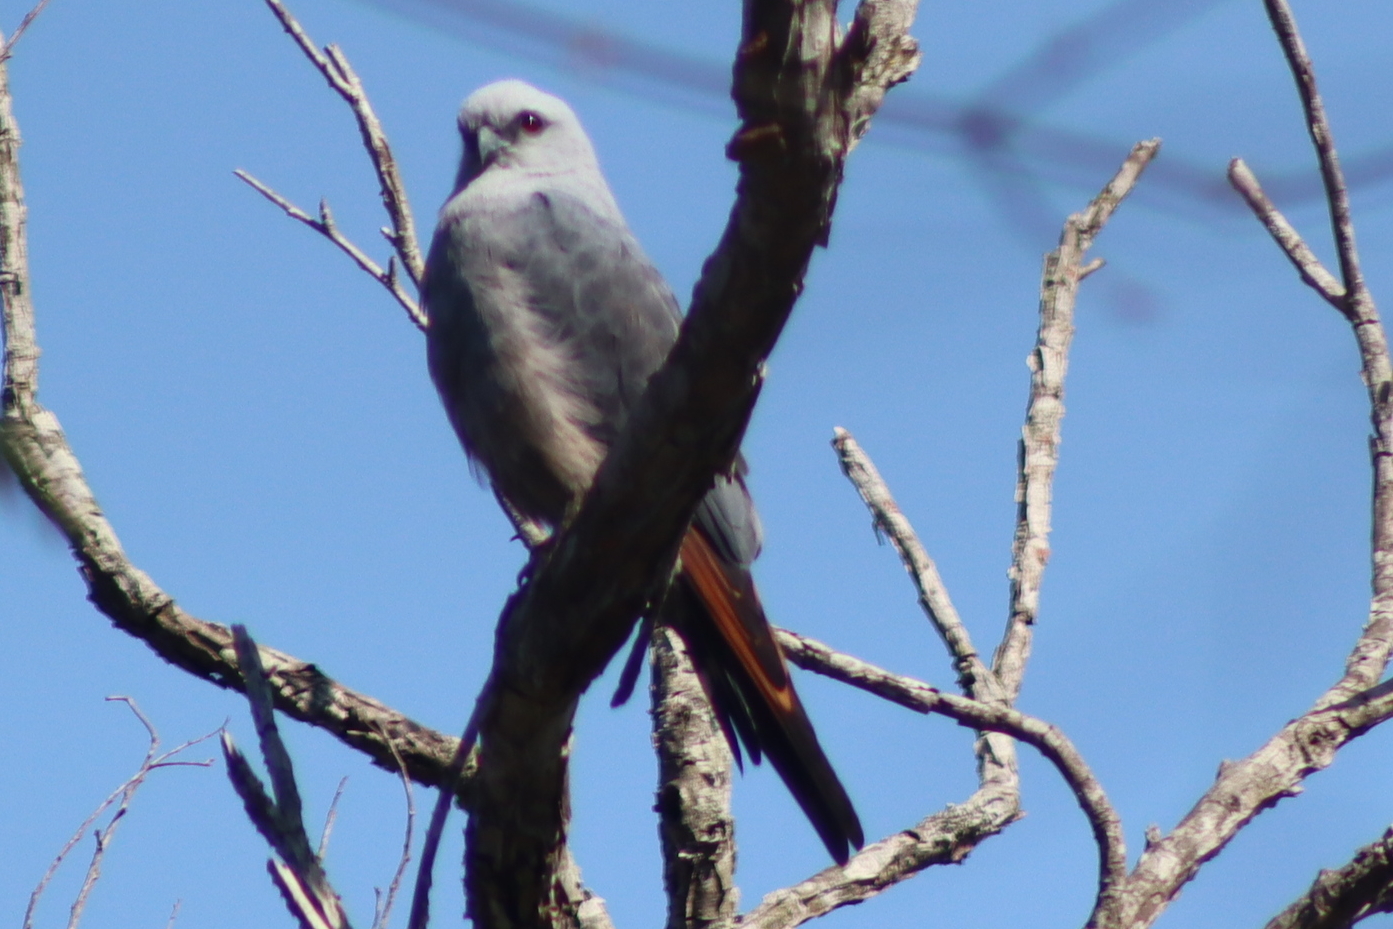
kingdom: Animalia
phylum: Chordata
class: Aves
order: Accipitriformes
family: Accipitridae
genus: Ictinia
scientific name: Ictinia plumbea
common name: Plumbeous kite
